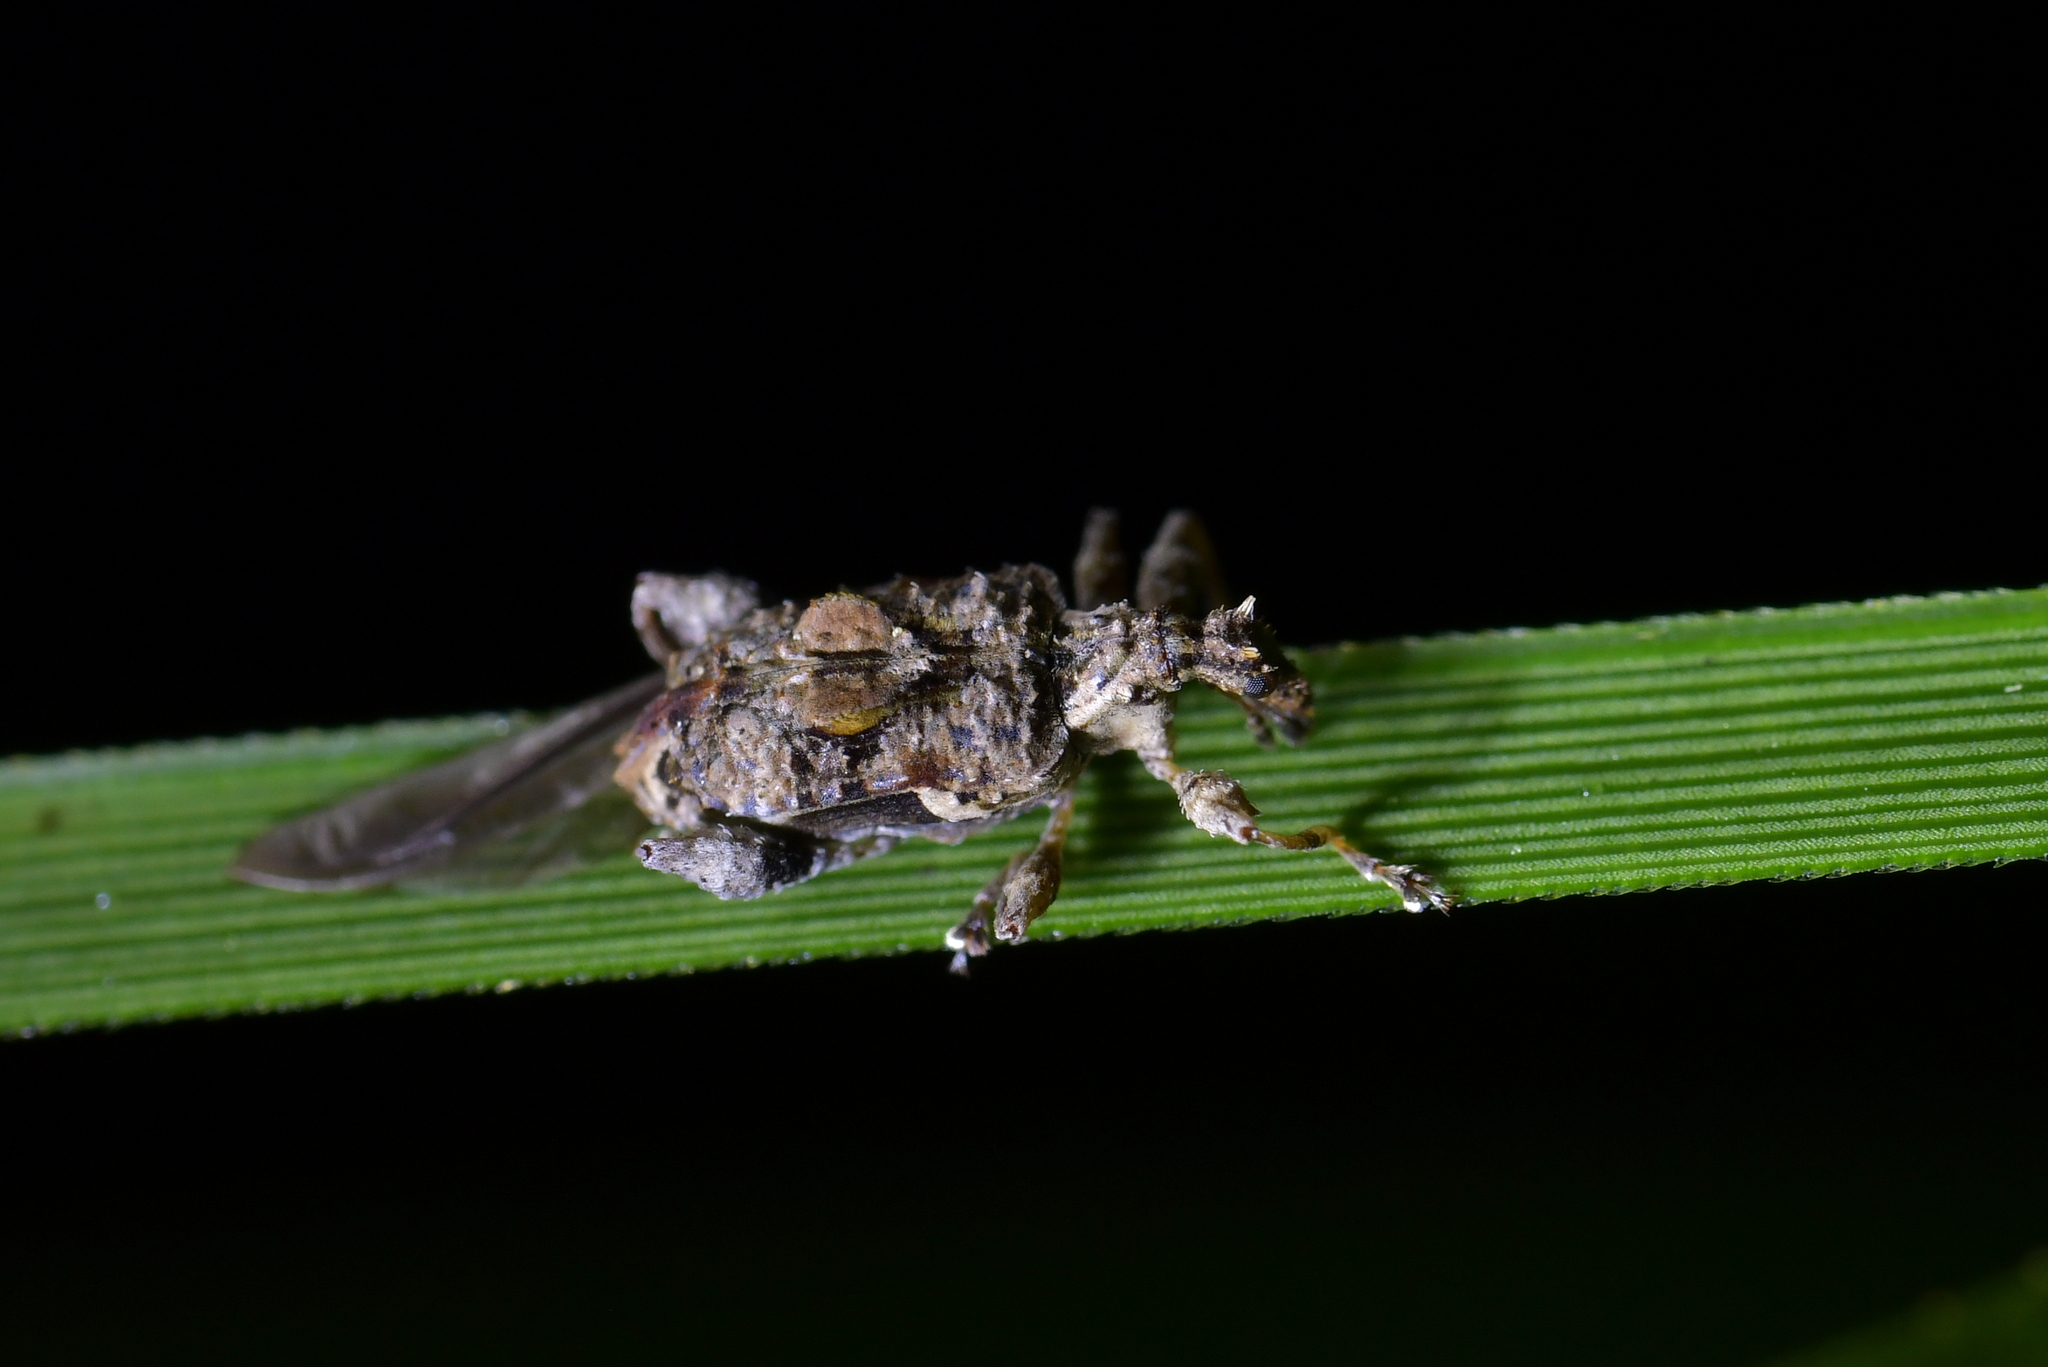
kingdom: Animalia
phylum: Arthropoda
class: Insecta
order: Coleoptera
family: Curculionidae
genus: Stephanorhynchus
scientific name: Stephanorhynchus curvipes
